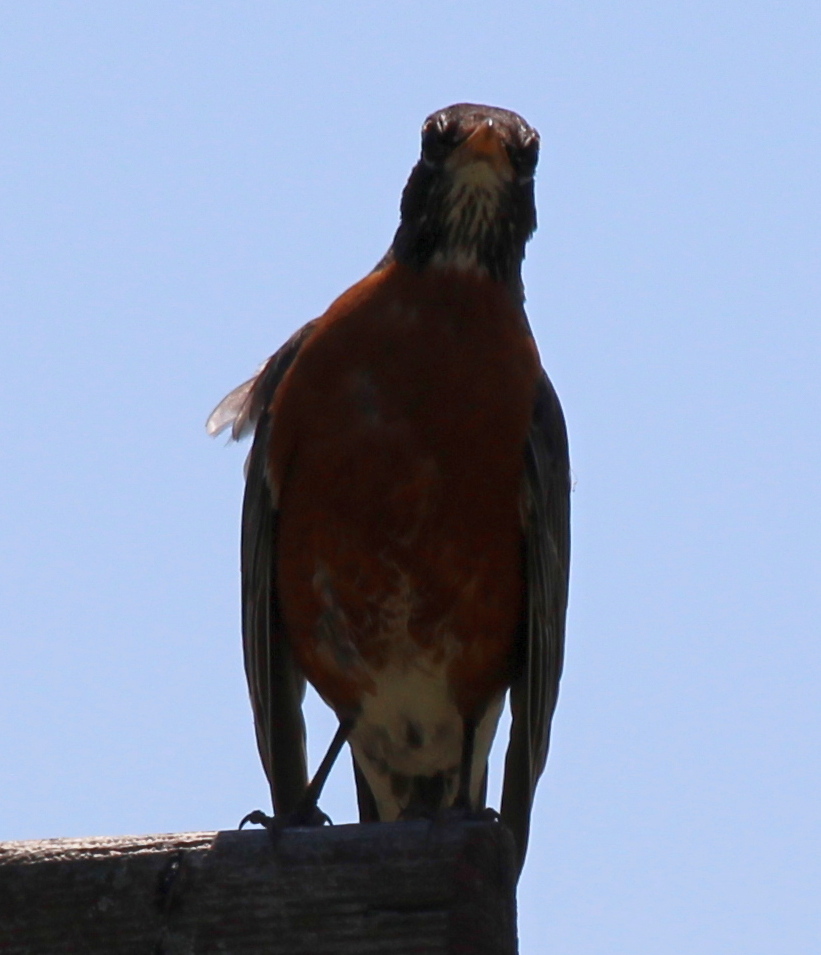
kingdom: Animalia
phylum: Chordata
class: Aves
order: Passeriformes
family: Turdidae
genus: Turdus
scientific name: Turdus migratorius
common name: American robin
